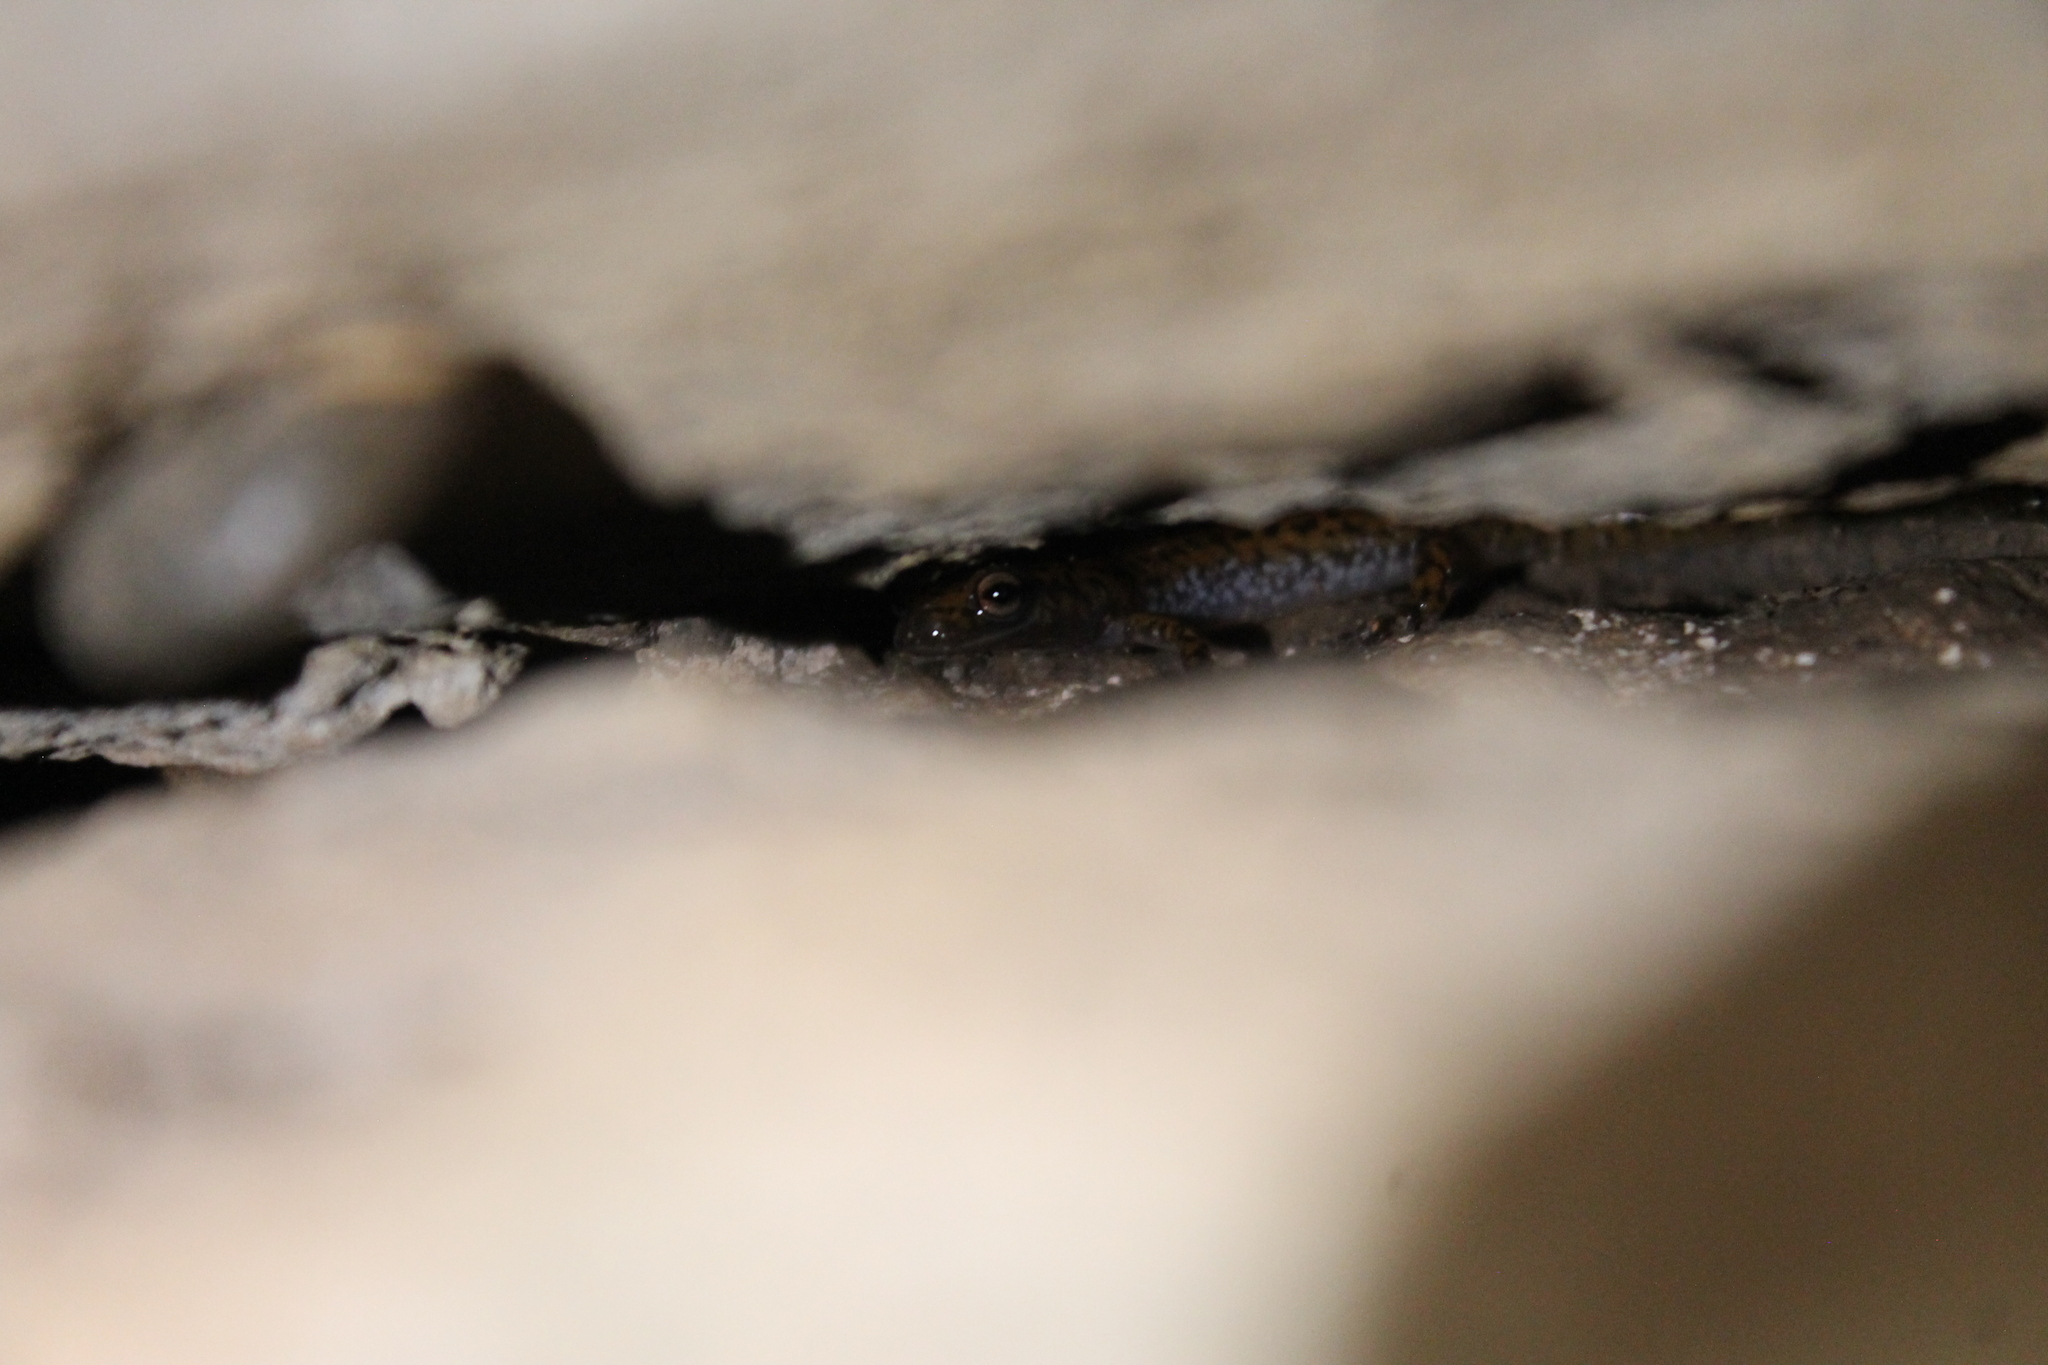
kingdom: Animalia
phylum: Chordata
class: Amphibia
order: Caudata
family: Plethodontidae
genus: Eurycea
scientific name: Eurycea lucifuga
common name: Cave salamander
